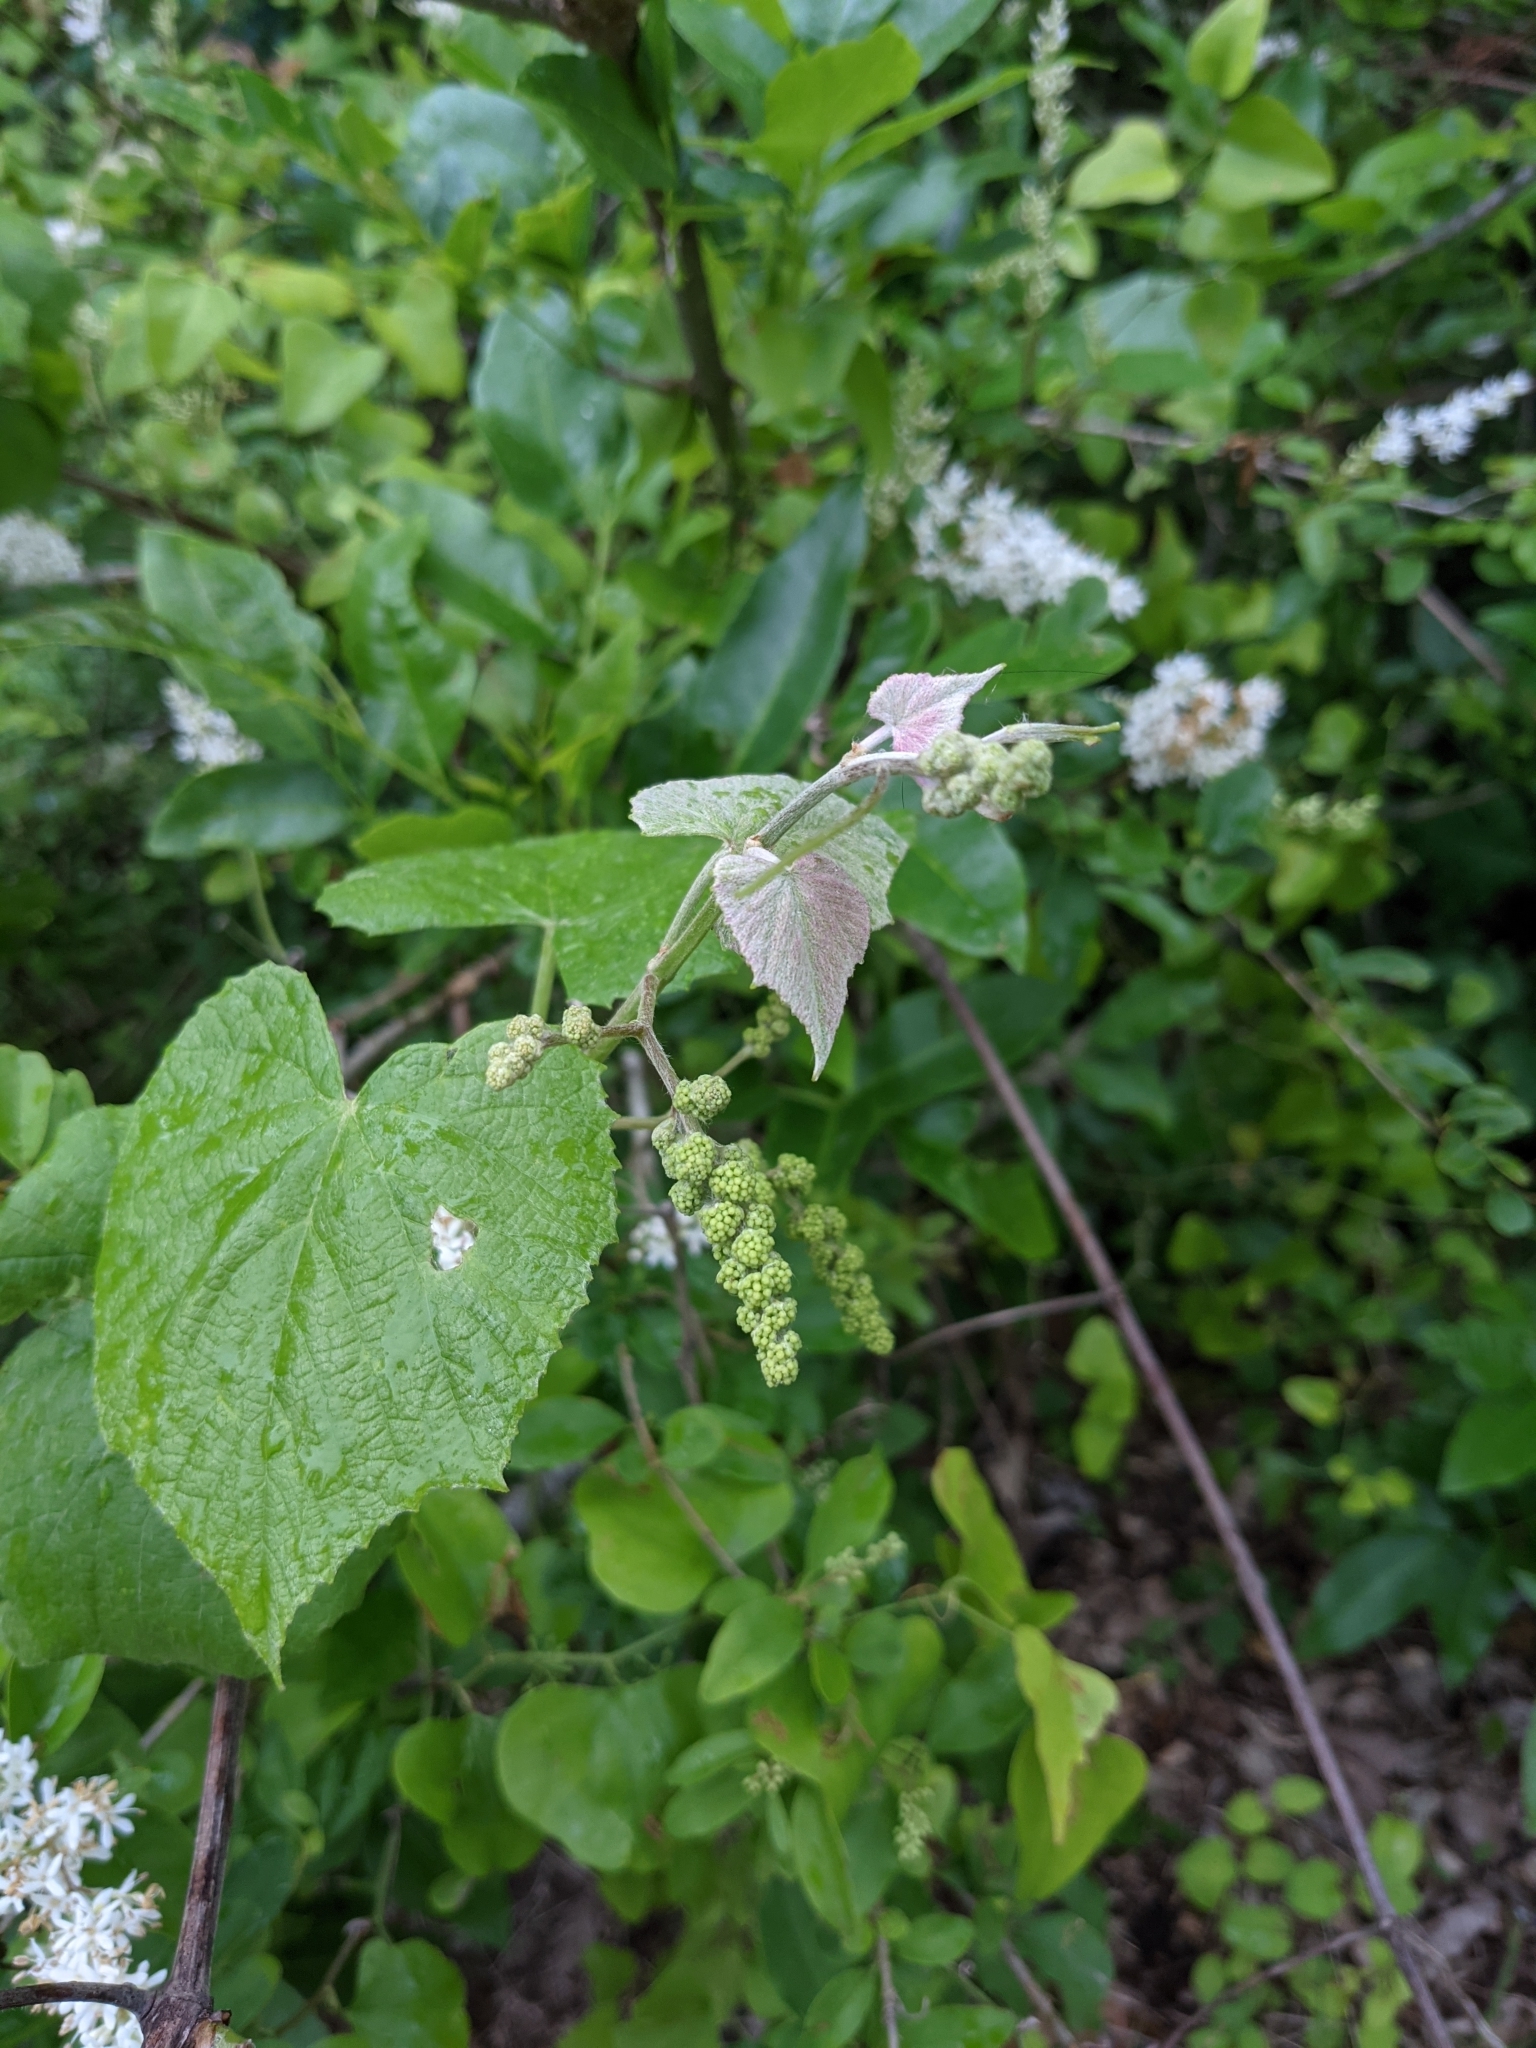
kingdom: Plantae
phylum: Tracheophyta
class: Magnoliopsida
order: Vitales
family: Vitaceae
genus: Vitis
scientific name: Vitis cinerea
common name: Ashy grape
